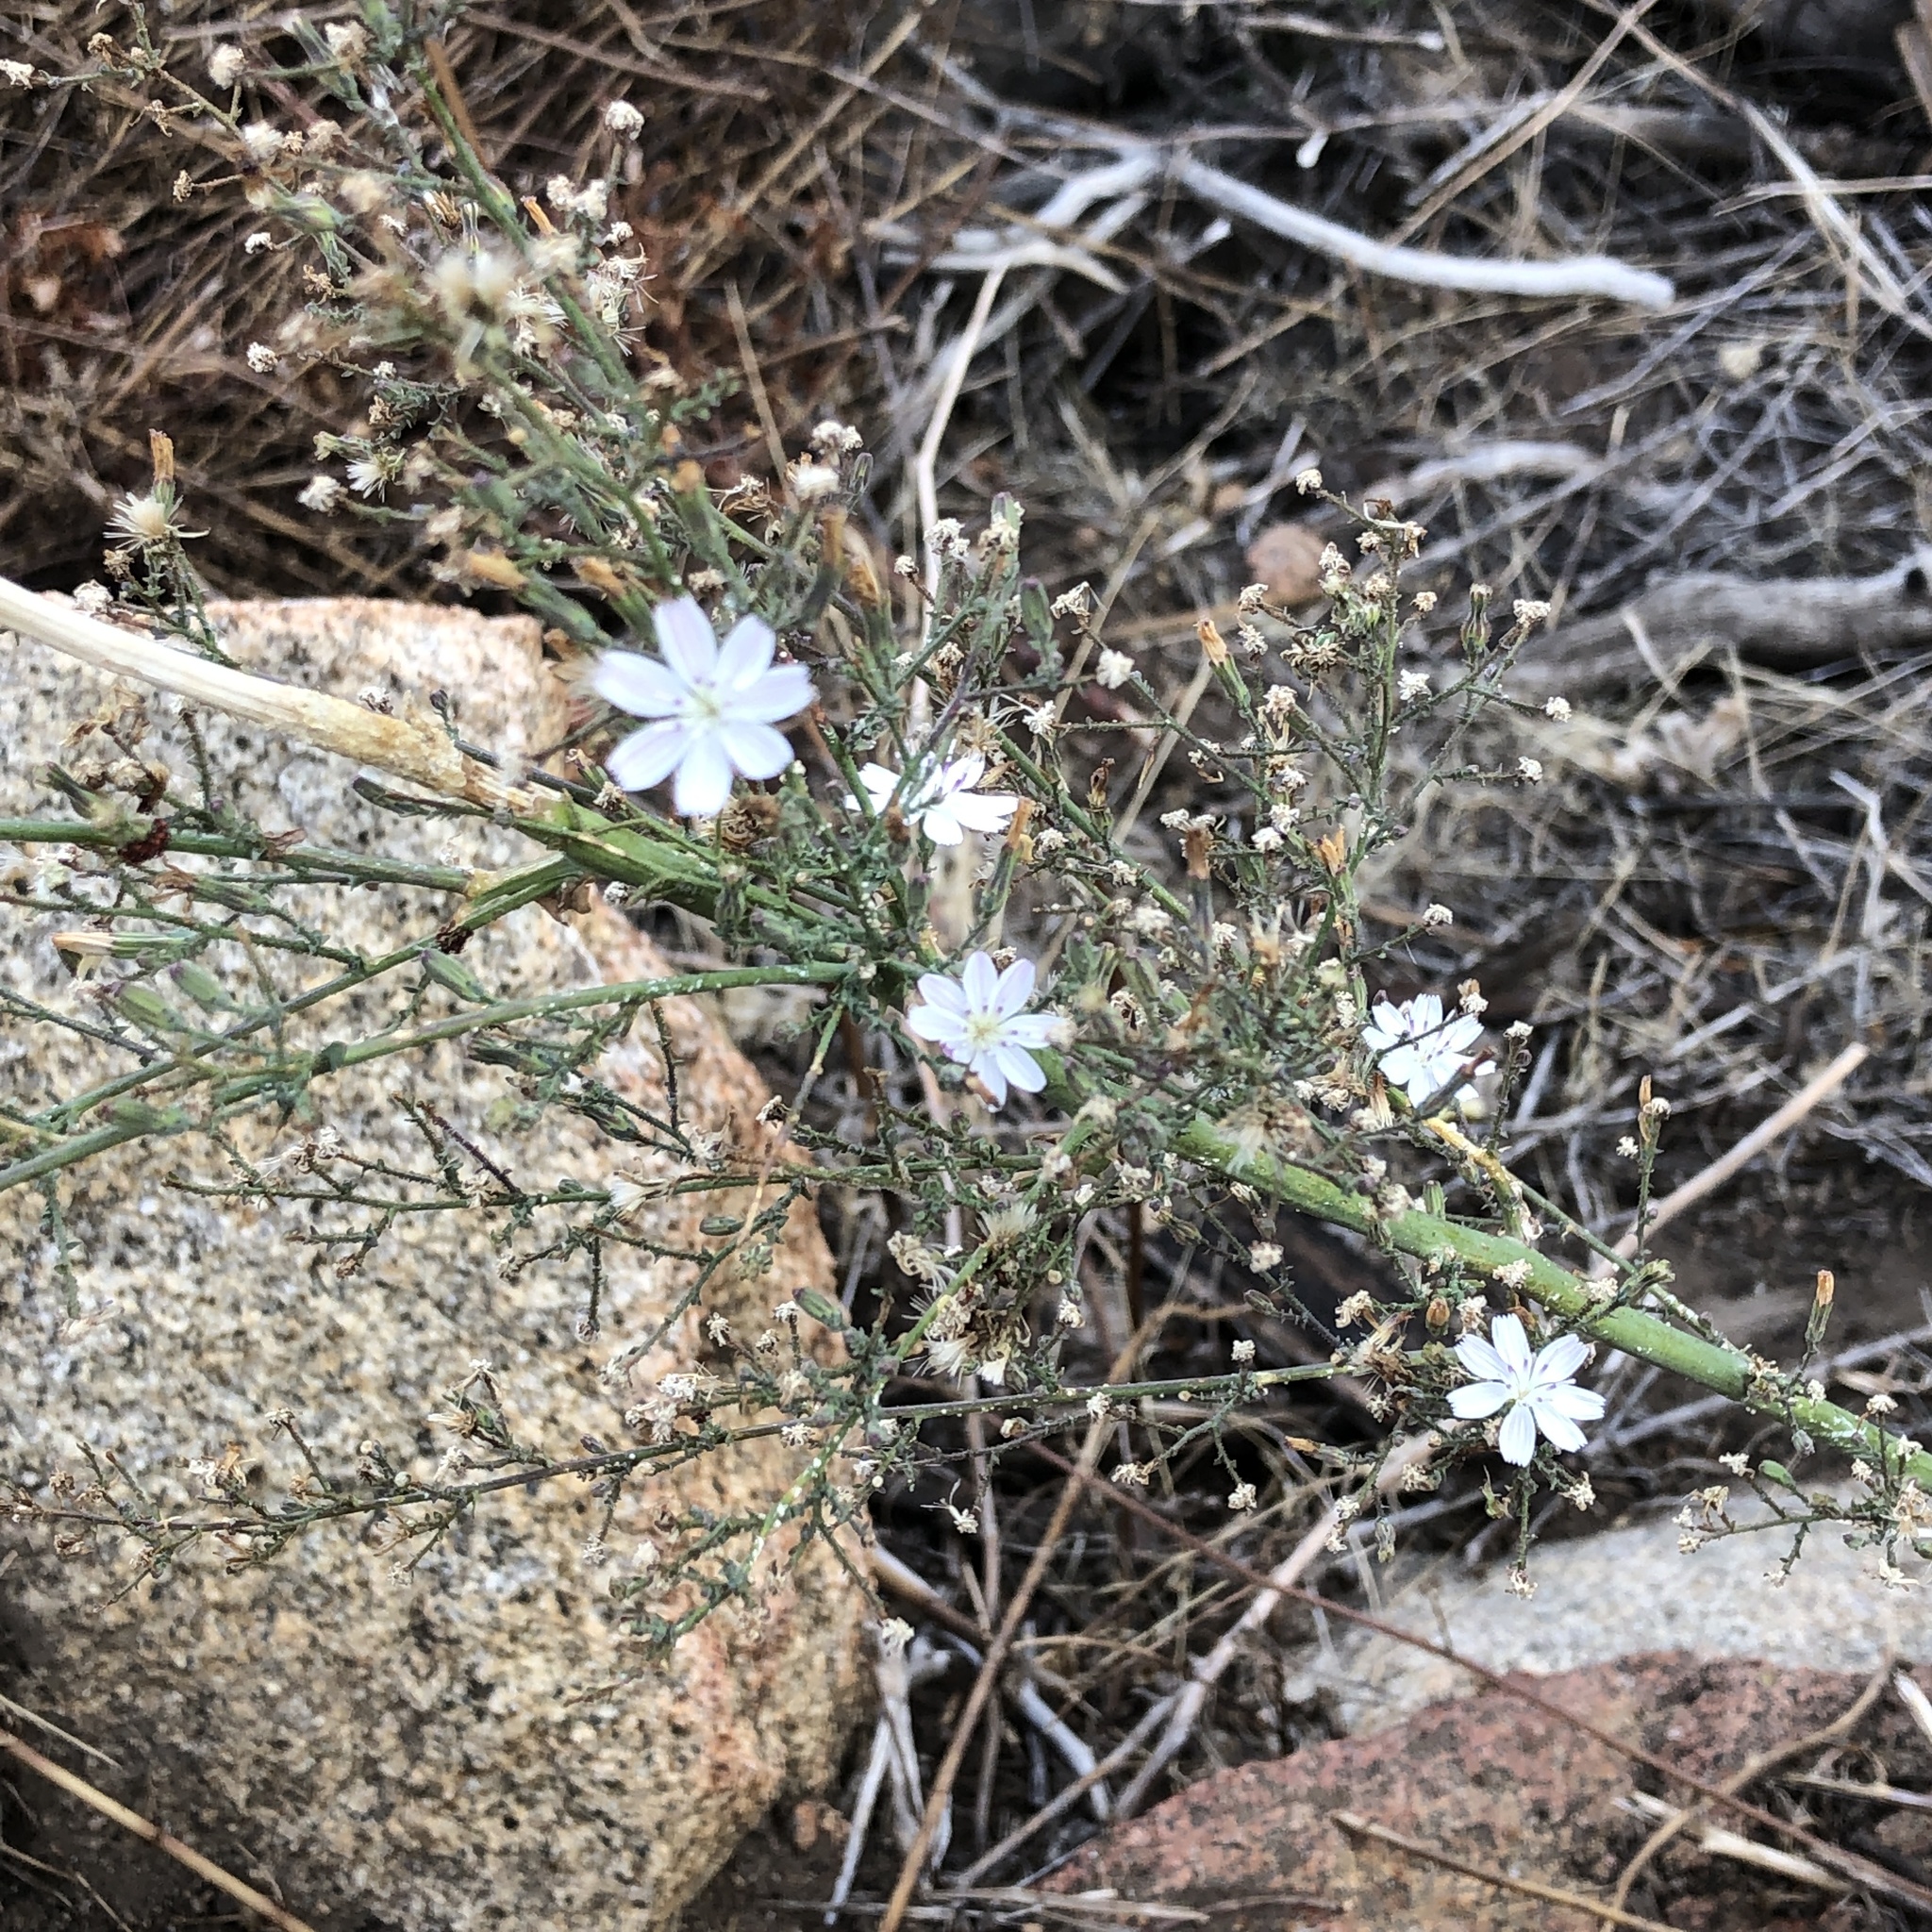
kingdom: Plantae
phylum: Tracheophyta
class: Magnoliopsida
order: Asterales
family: Asteraceae
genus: Stephanomeria
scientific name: Stephanomeria exigua
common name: Small wirelettuce
